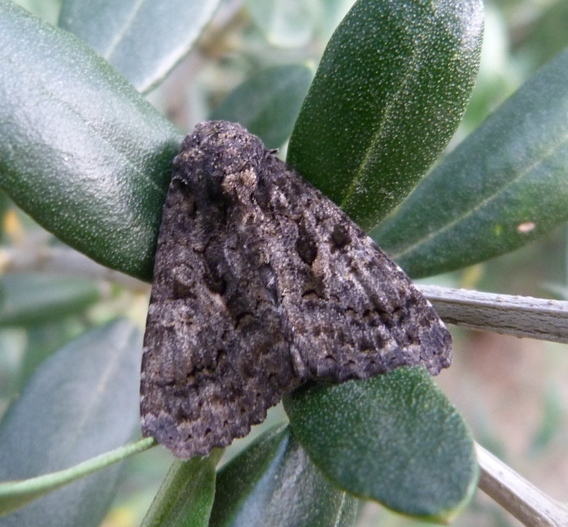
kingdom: Animalia
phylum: Arthropoda
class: Insecta
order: Lepidoptera
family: Noctuidae
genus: Aedia
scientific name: Aedia leucomelas
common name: Sorcerer
